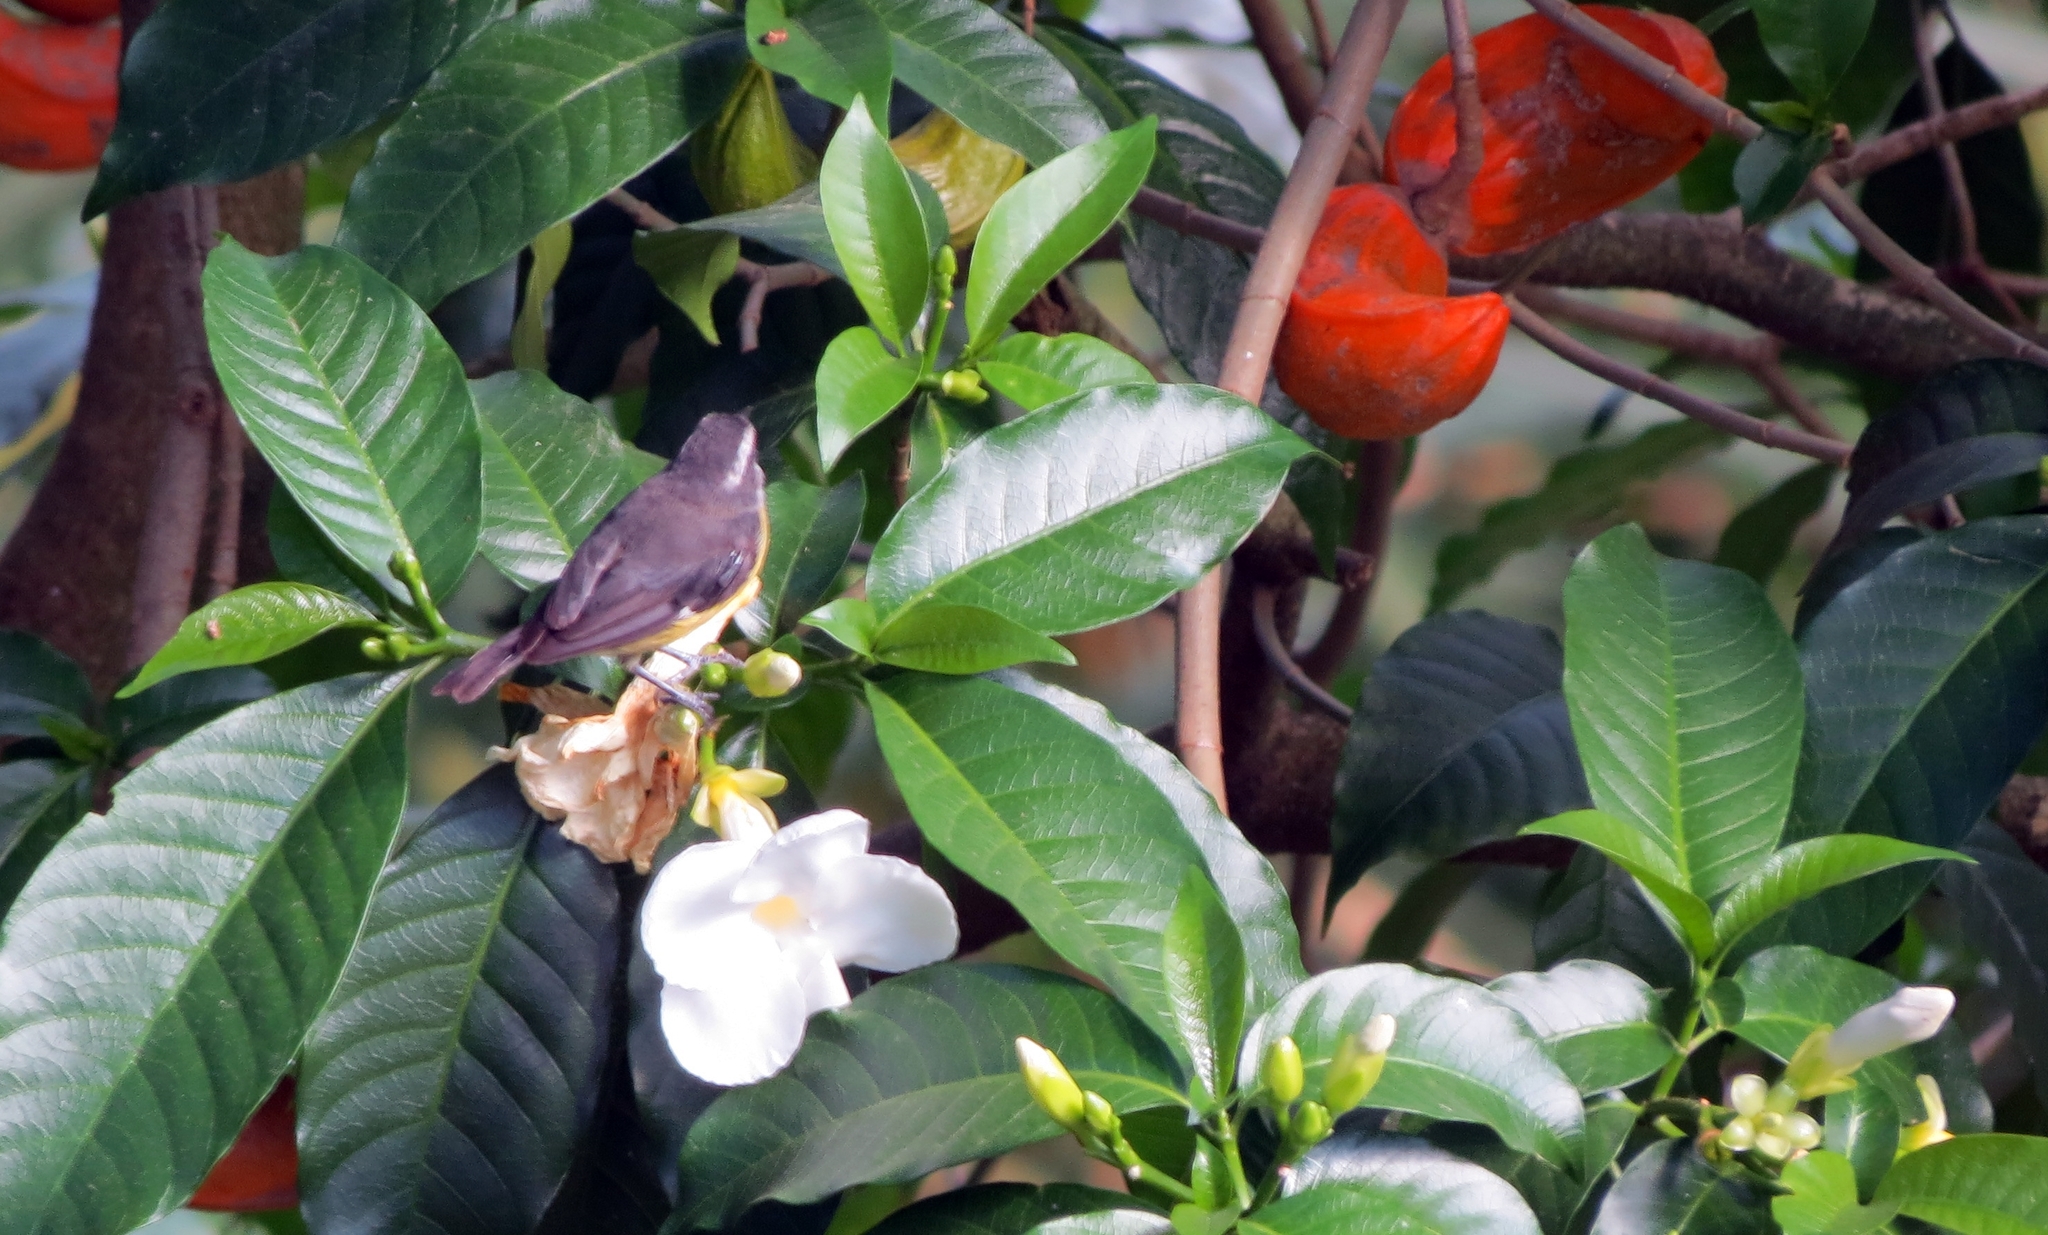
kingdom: Animalia
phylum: Chordata
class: Aves
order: Passeriformes
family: Thraupidae
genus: Coereba
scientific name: Coereba flaveola
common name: Bananaquit
